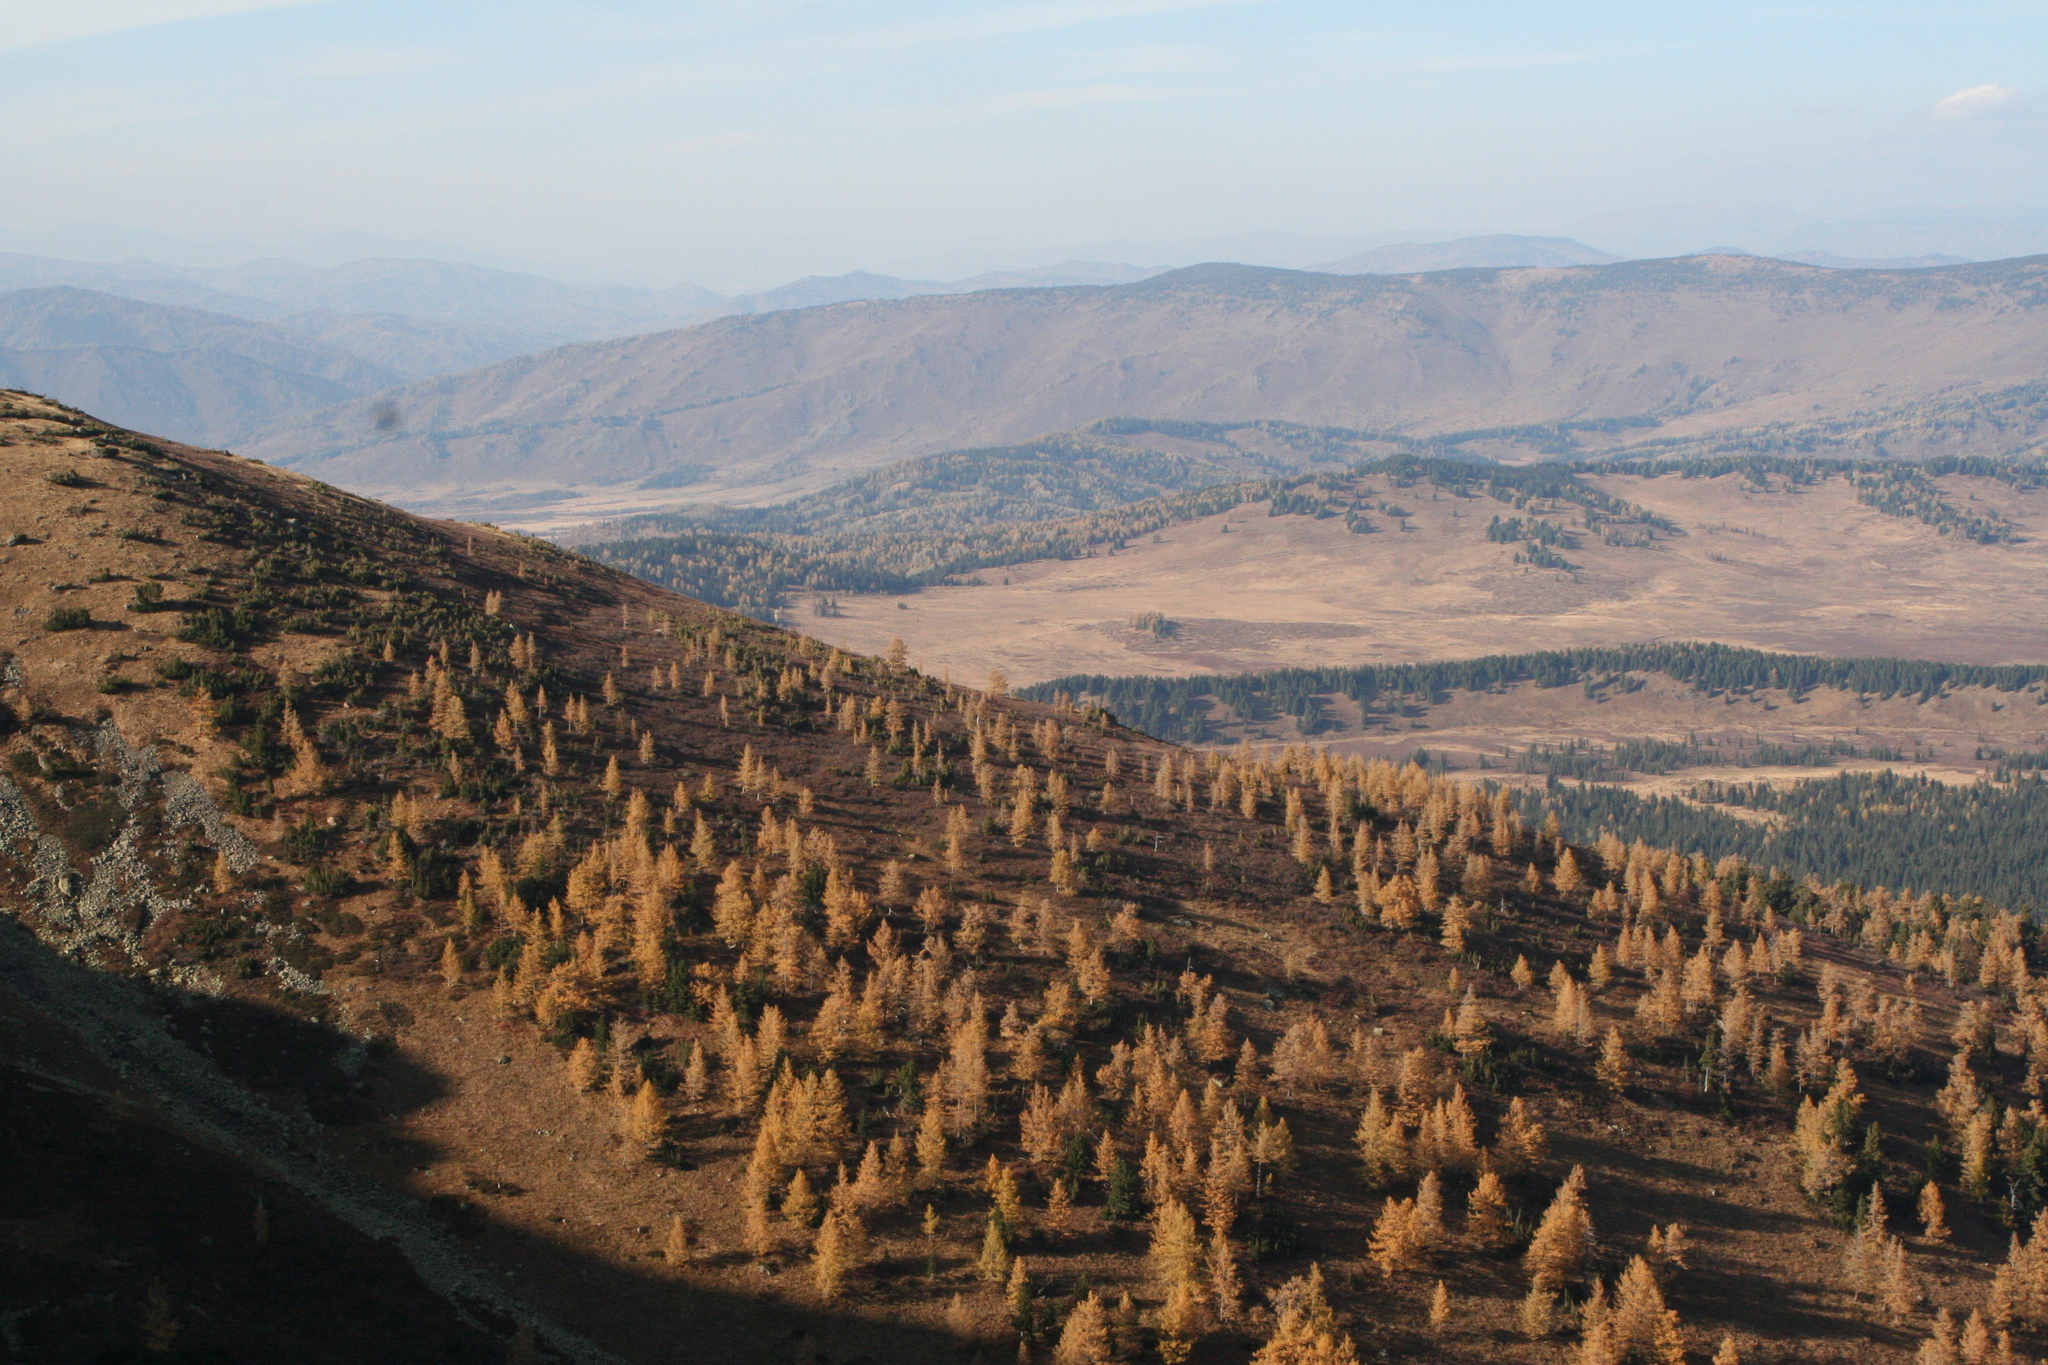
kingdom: Plantae
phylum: Tracheophyta
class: Pinopsida
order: Pinales
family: Pinaceae
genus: Pinus
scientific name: Pinus sibirica
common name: Siberian pine
